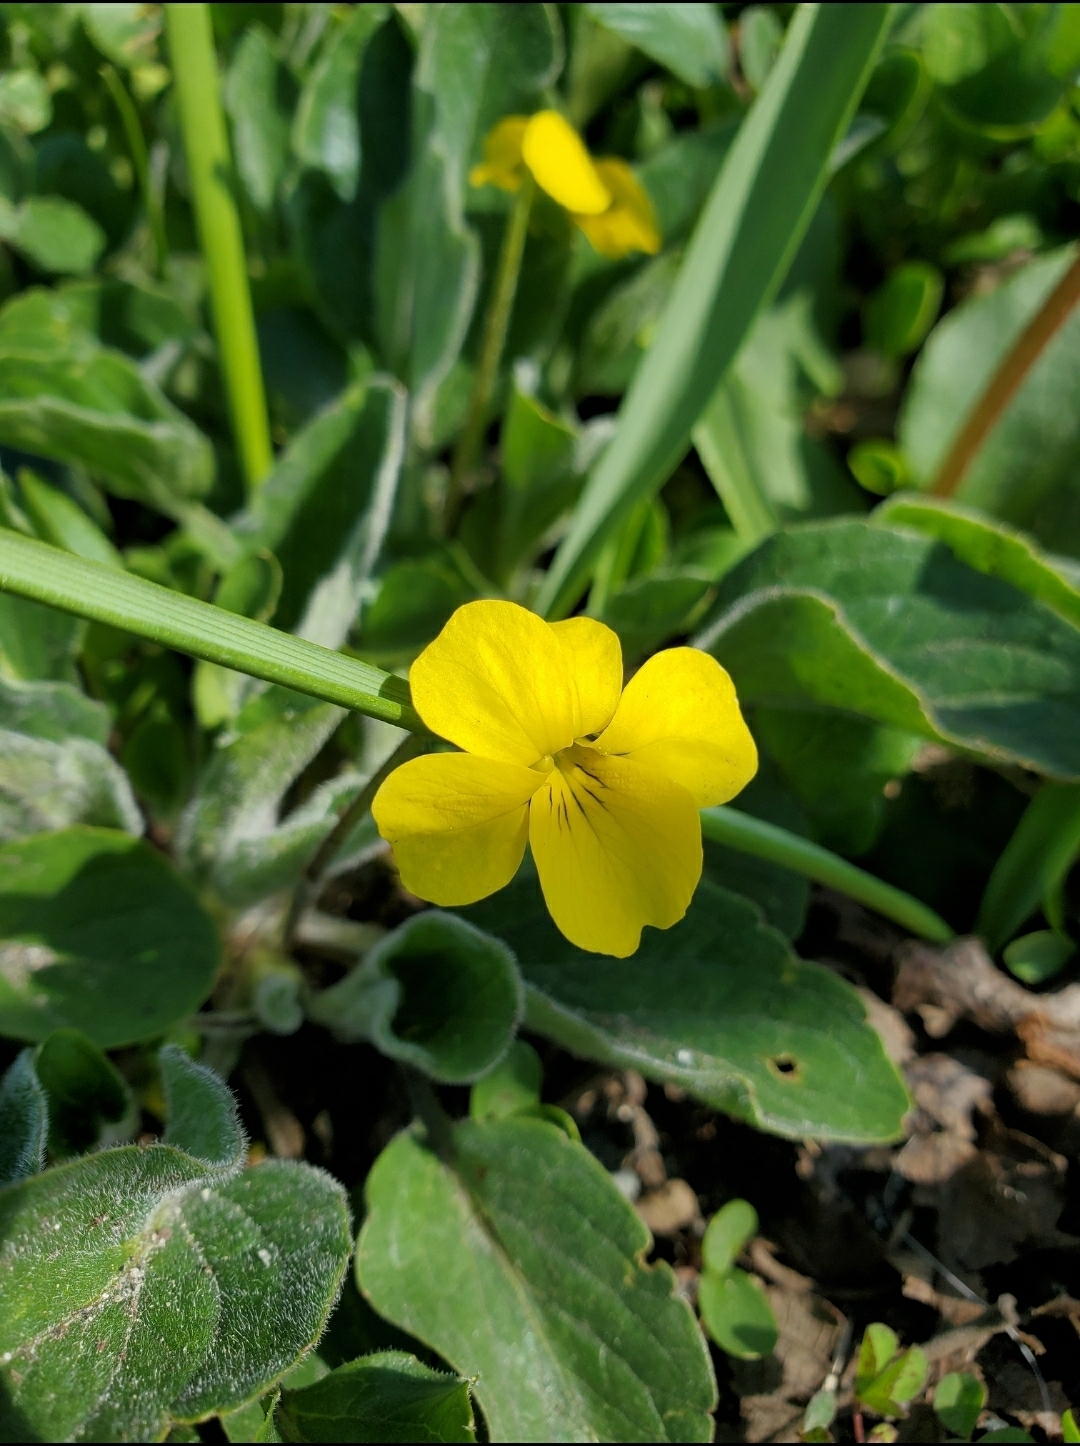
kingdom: Plantae
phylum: Tracheophyta
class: Magnoliopsida
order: Malpighiales
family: Violaceae
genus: Viola
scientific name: Viola praemorsa
